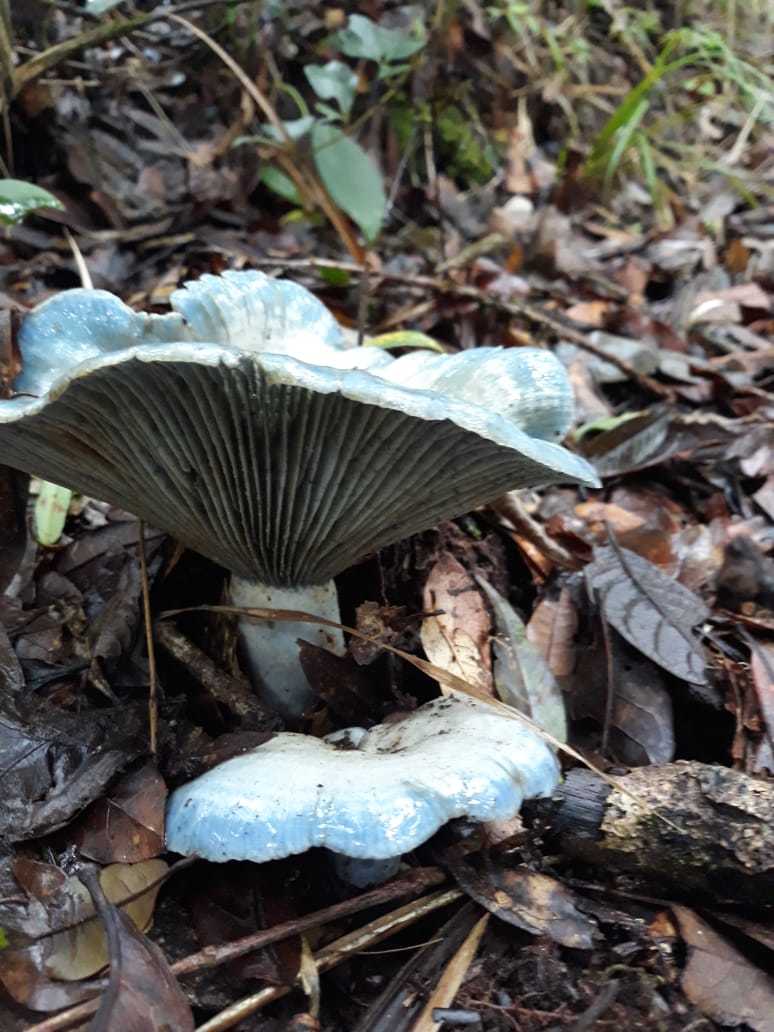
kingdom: Fungi
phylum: Basidiomycota
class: Agaricomycetes
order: Russulales
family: Russulaceae
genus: Lactarius
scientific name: Lactarius indigo
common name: Indigo milk cap
